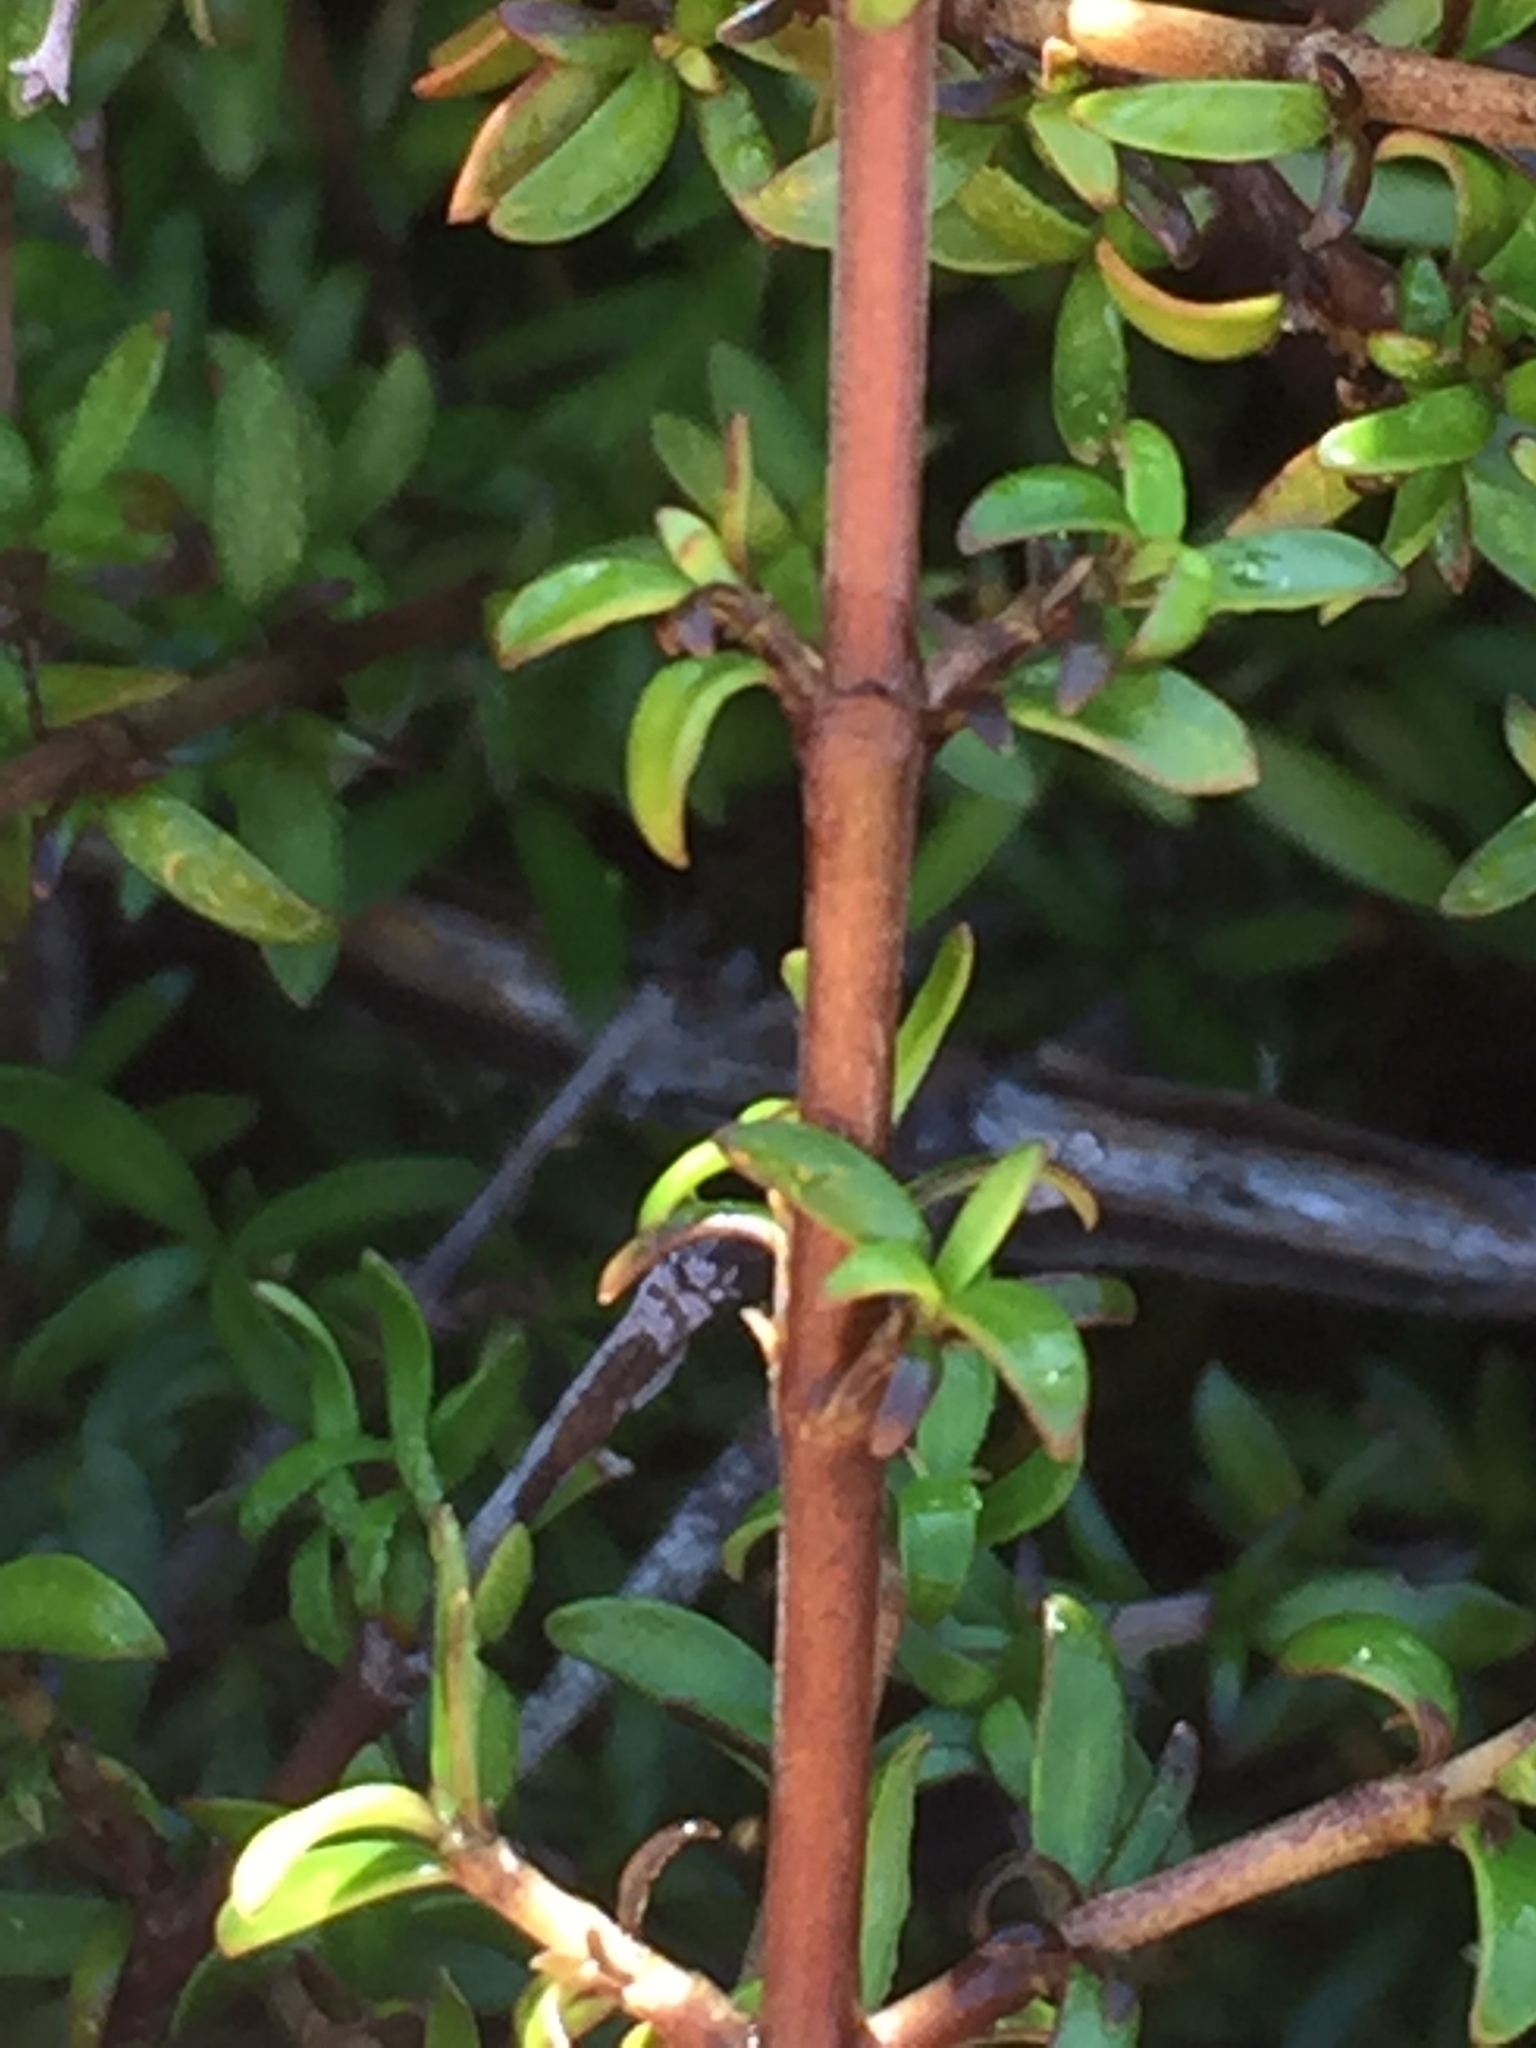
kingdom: Plantae
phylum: Tracheophyta
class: Magnoliopsida
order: Gentianales
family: Rubiaceae
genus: Coprosma
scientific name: Coprosma pseudocuneata
